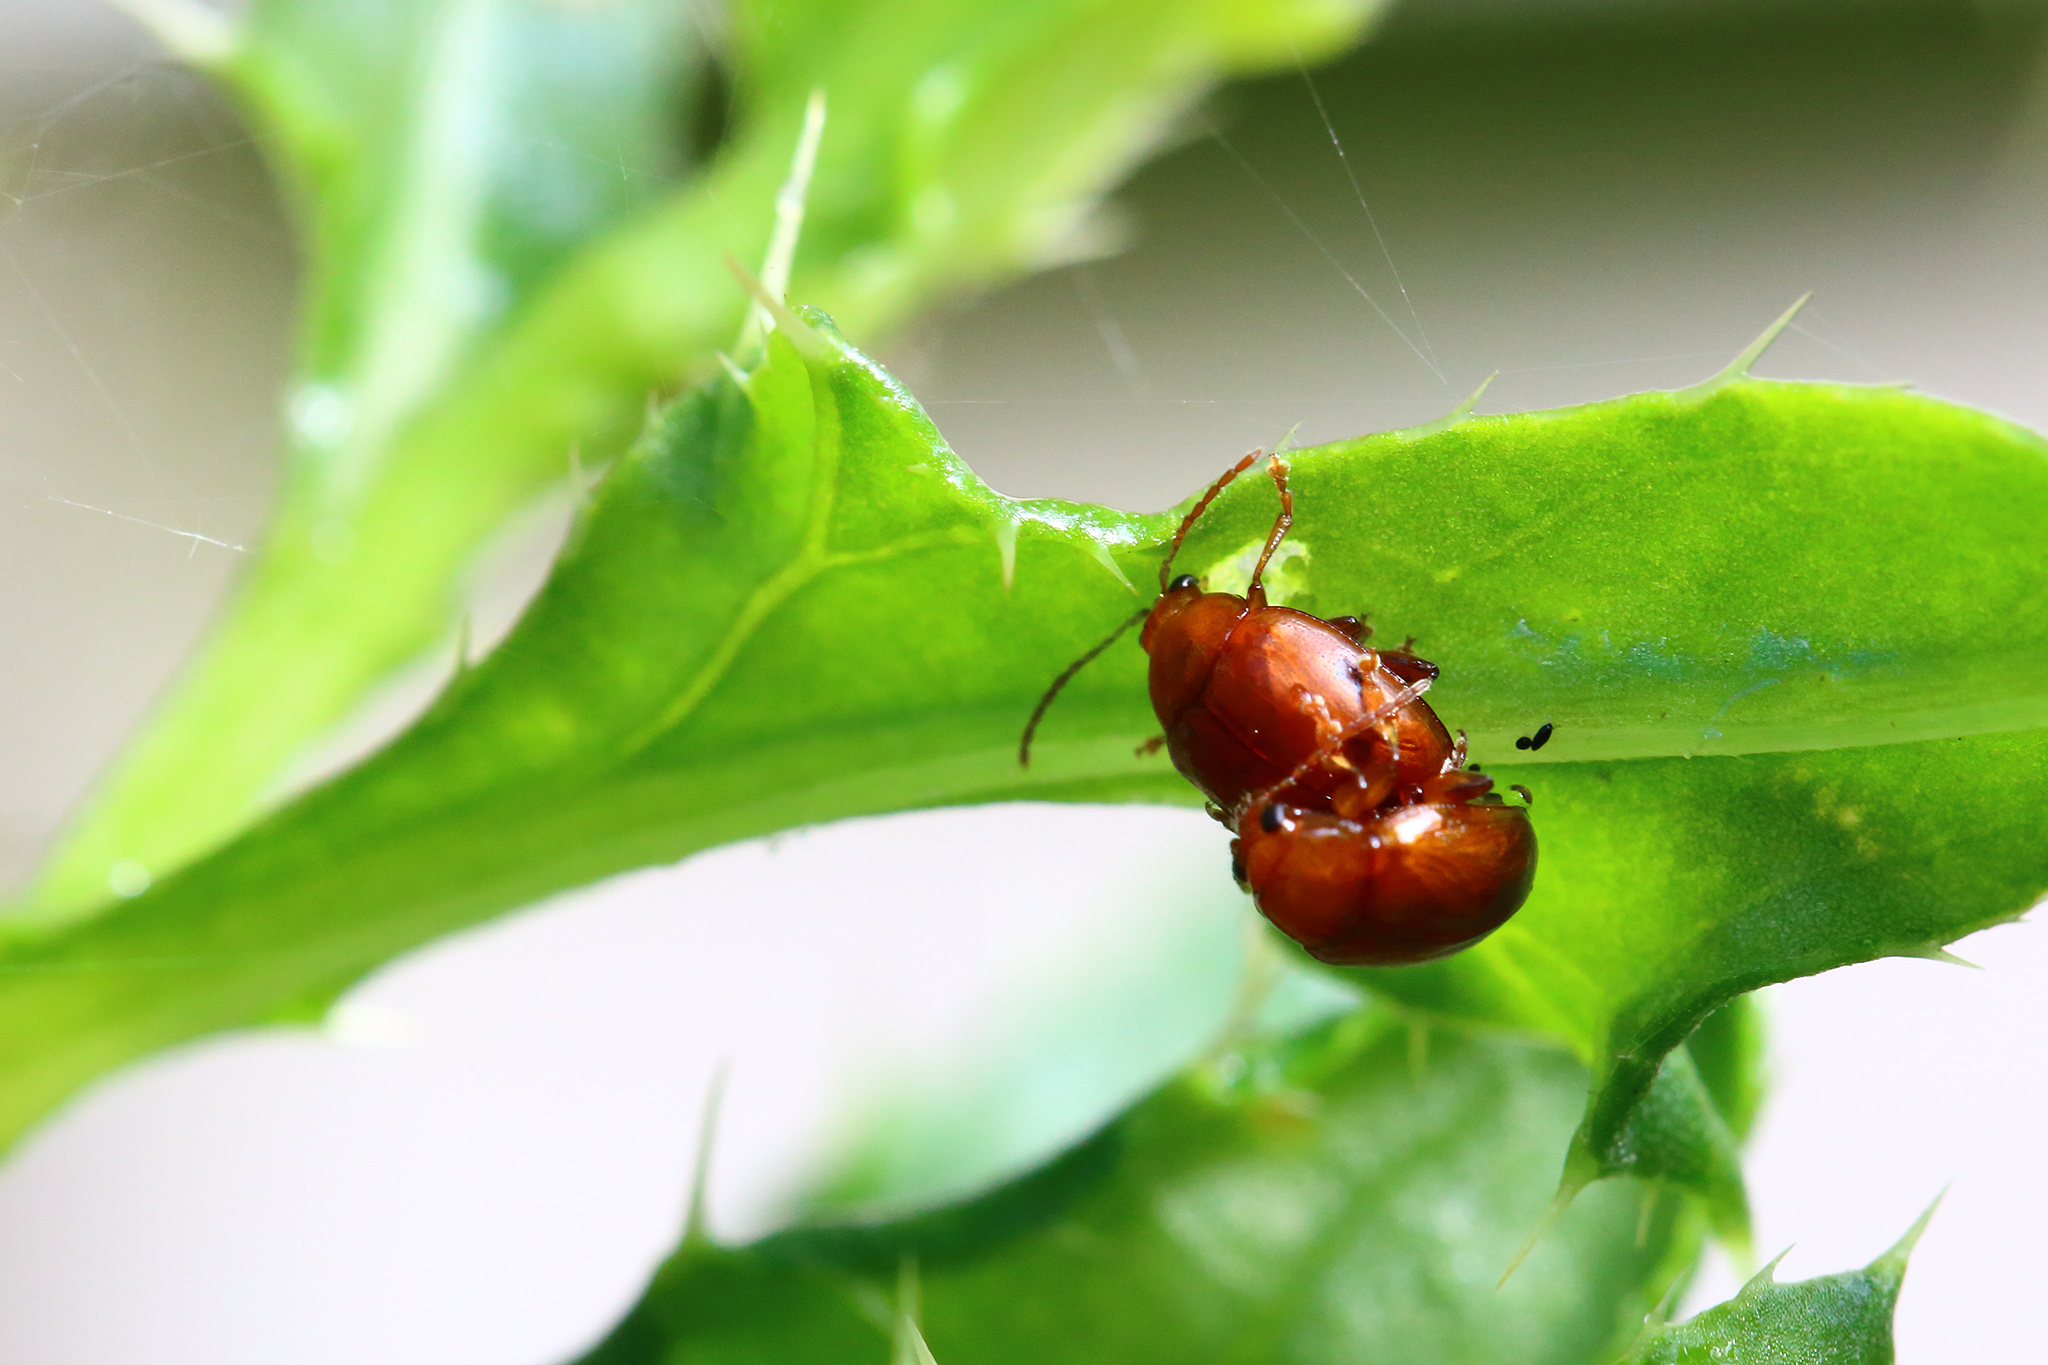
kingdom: Animalia
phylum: Arthropoda
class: Insecta
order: Coleoptera
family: Chrysomelidae
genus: Pistosia
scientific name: Pistosia testacea
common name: Leaf beetle
